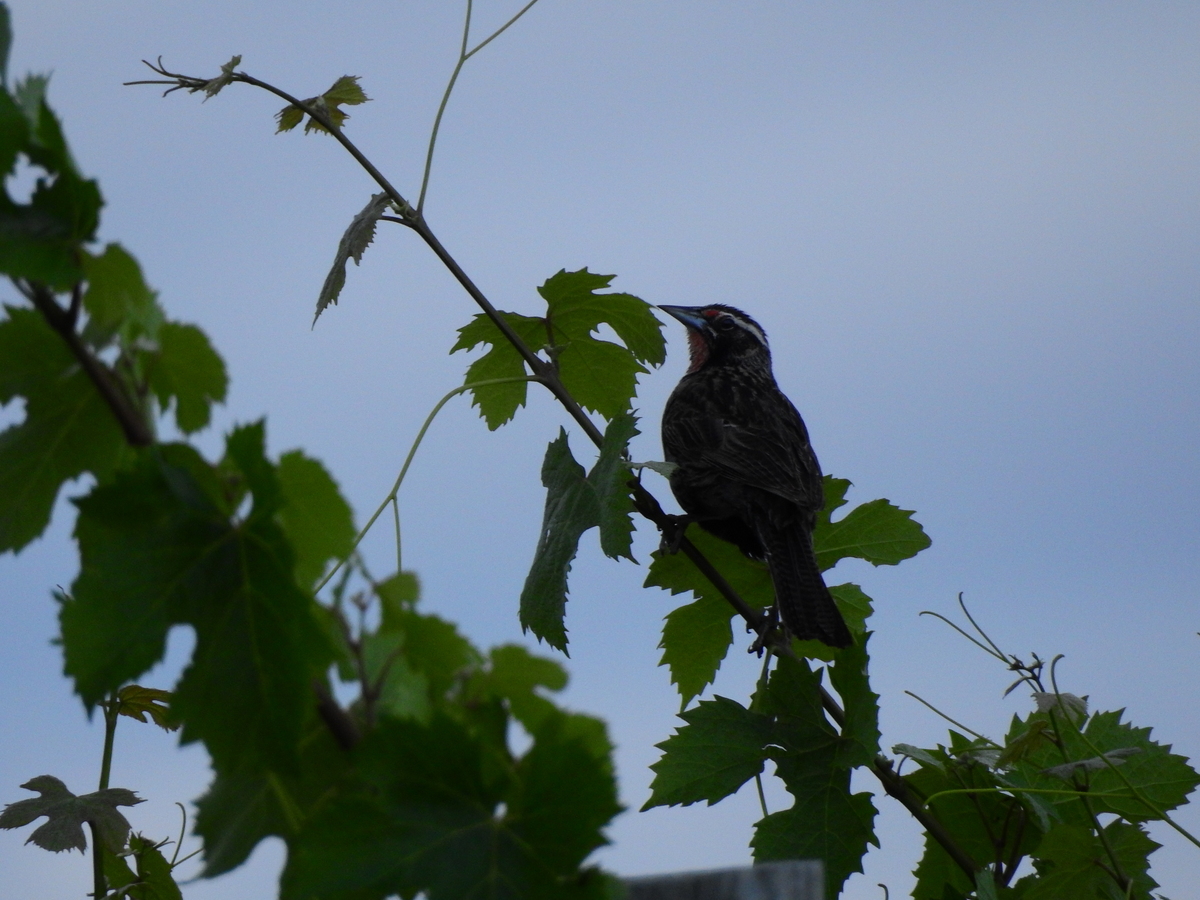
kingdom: Animalia
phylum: Chordata
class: Aves
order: Passeriformes
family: Icteridae
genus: Sturnella
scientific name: Sturnella loyca
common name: Long-tailed meadowlark
